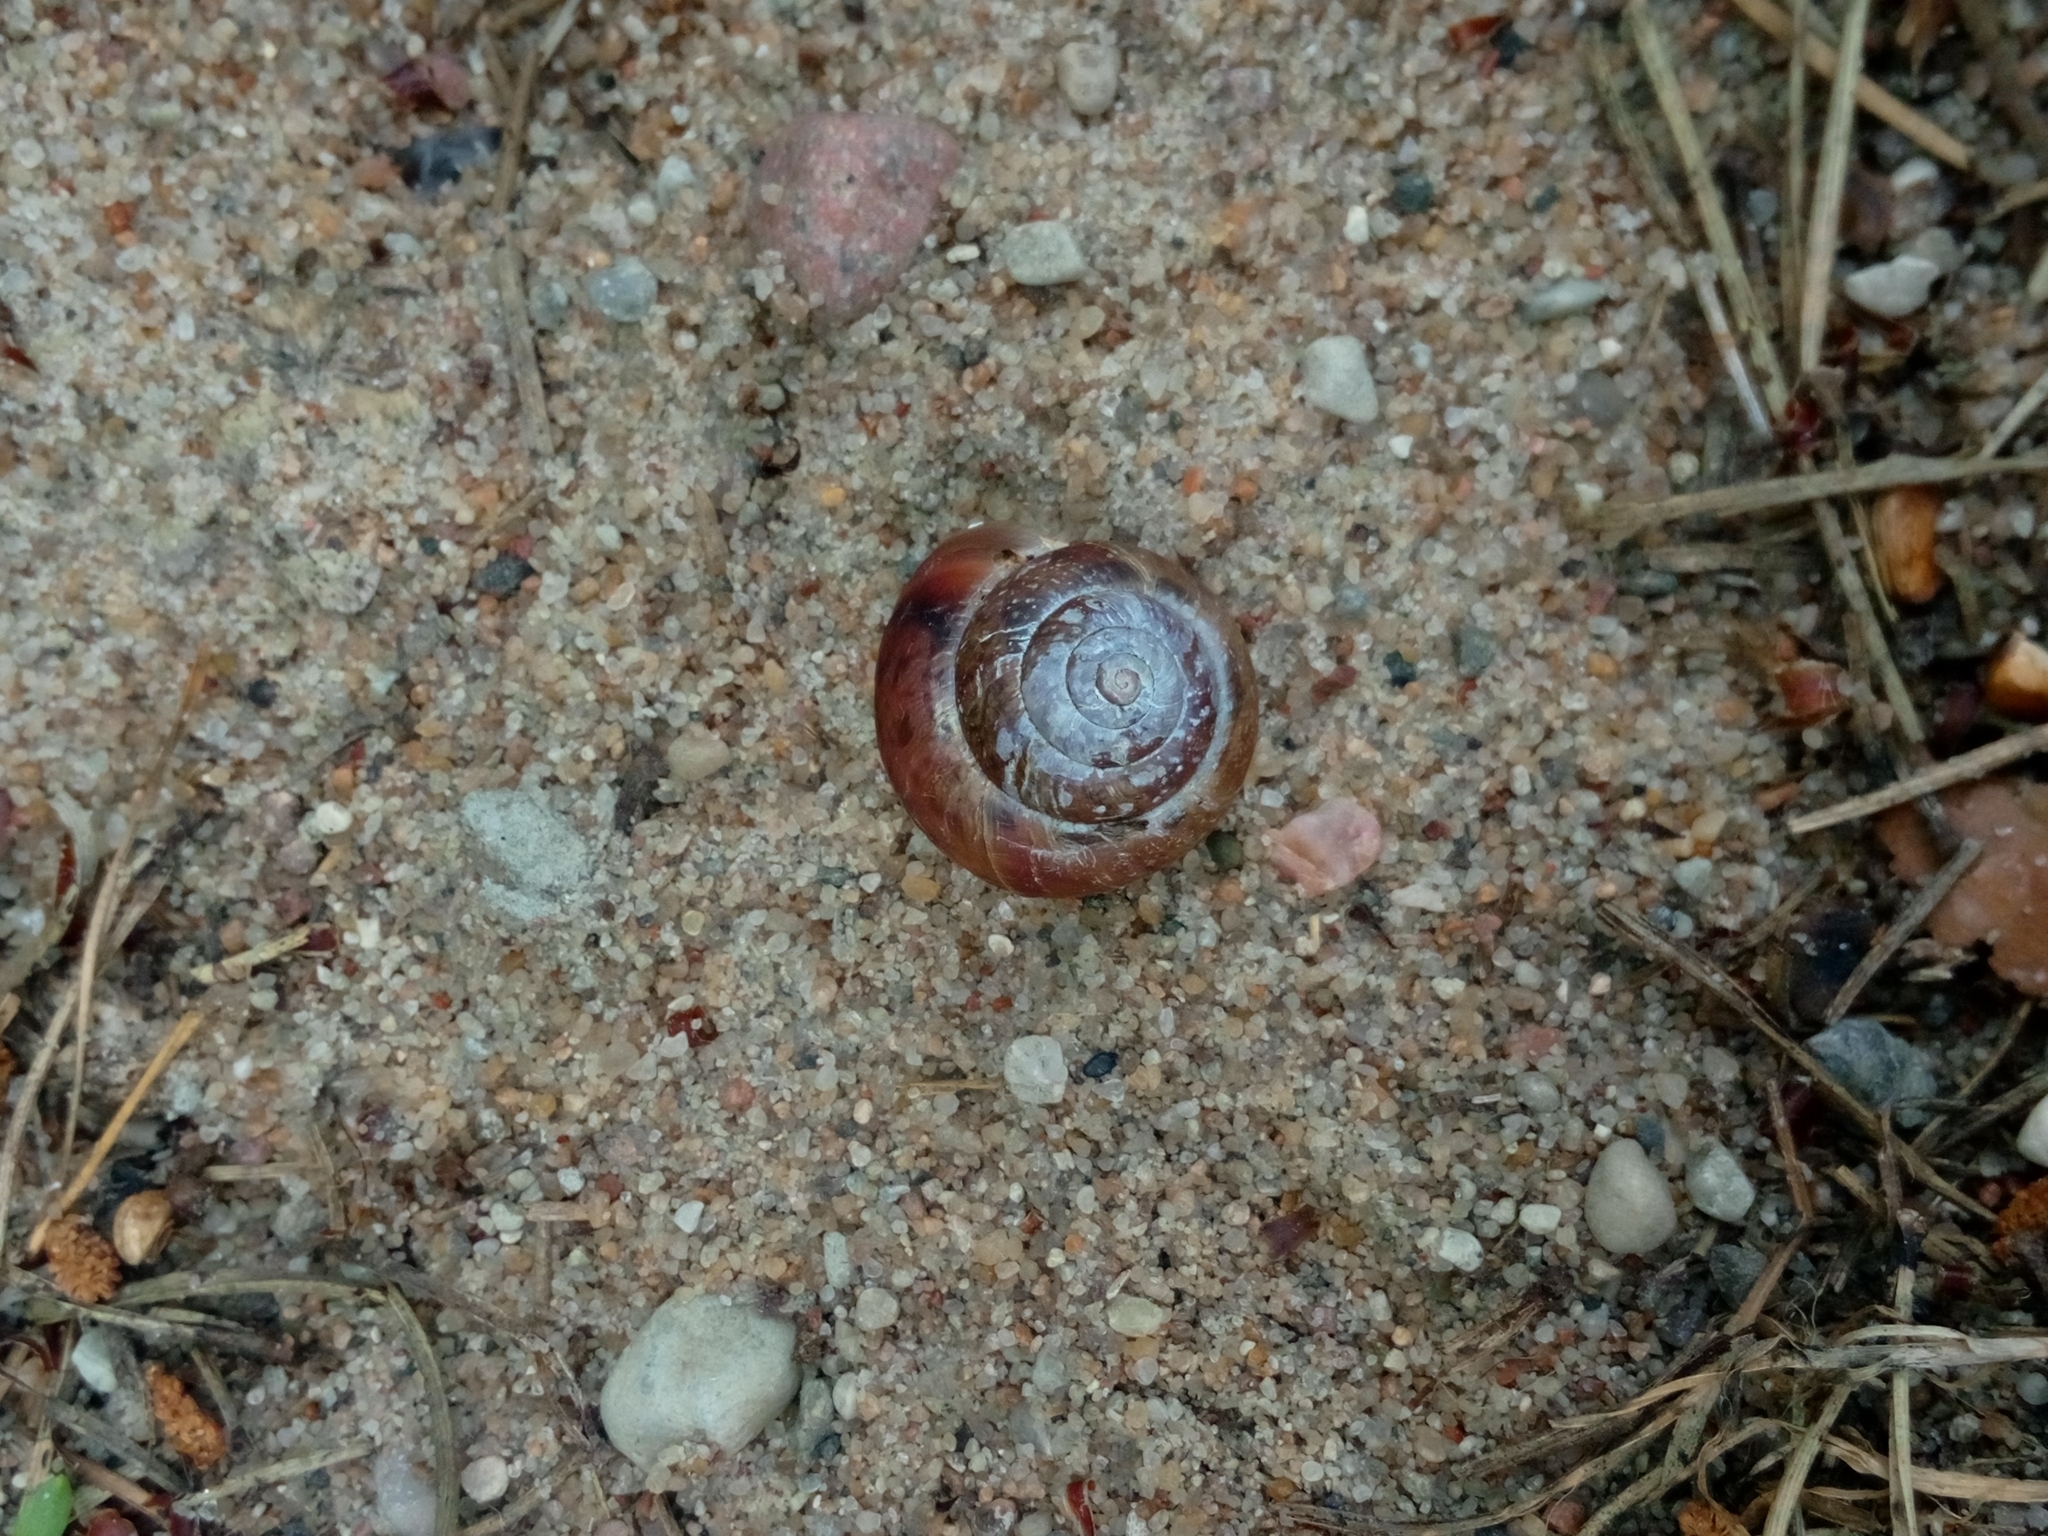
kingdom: Animalia
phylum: Mollusca
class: Gastropoda
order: Stylommatophora
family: Camaenidae
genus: Fruticicola
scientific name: Fruticicola fruticum
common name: Bush snail
